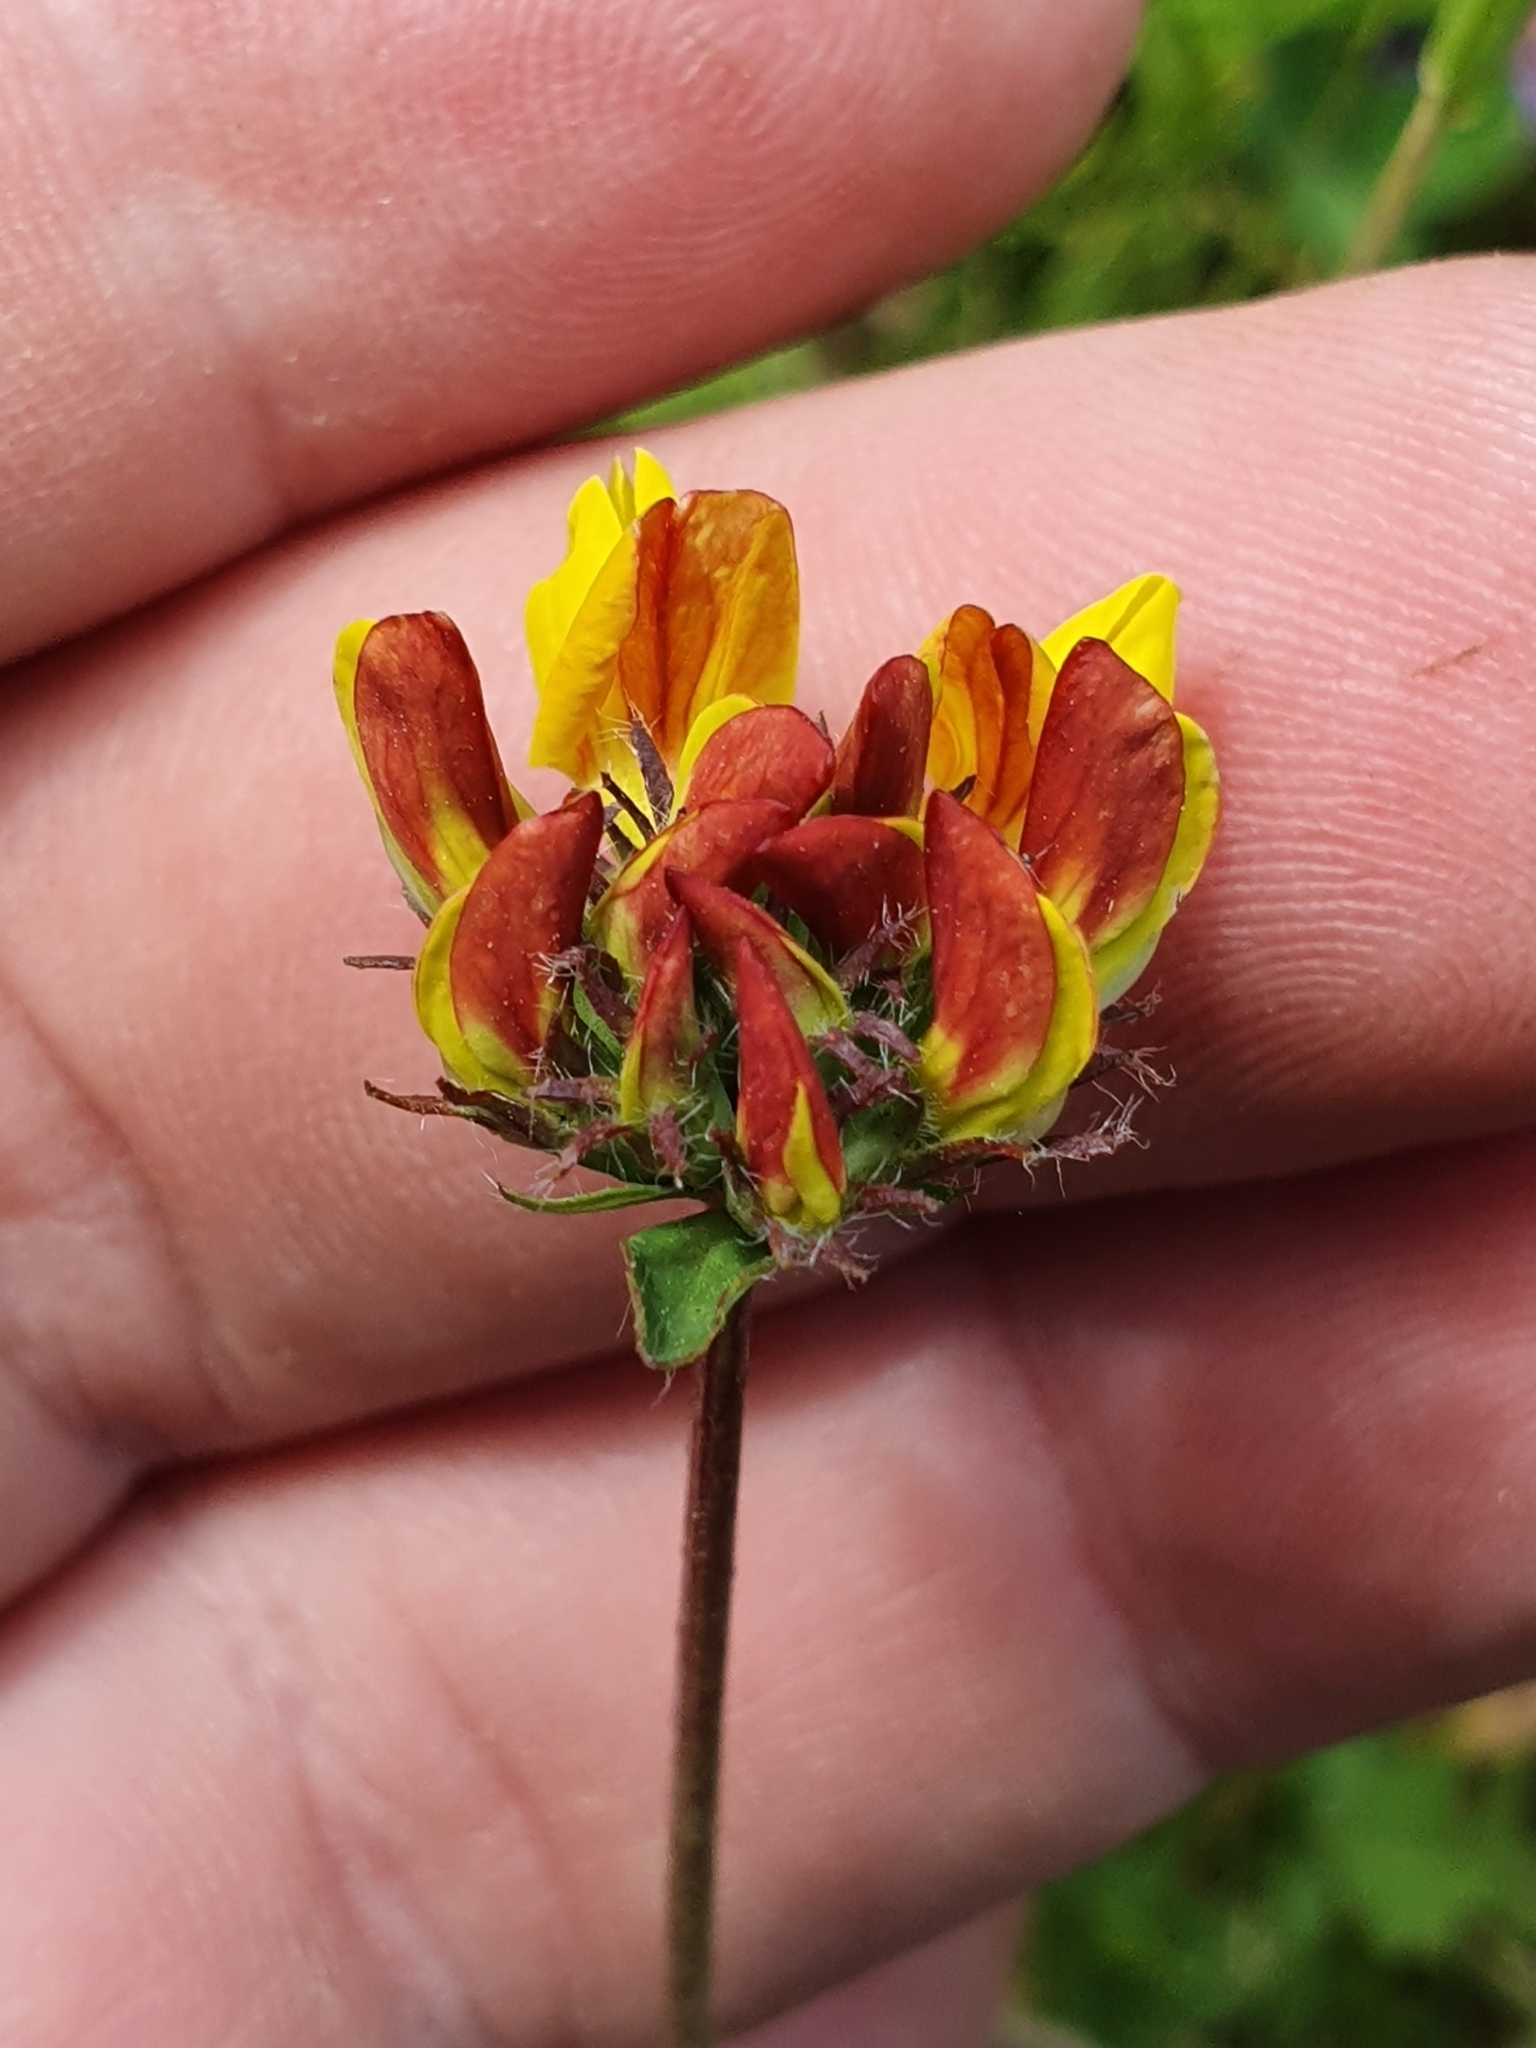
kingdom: Plantae
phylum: Tracheophyta
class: Magnoliopsida
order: Fabales
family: Fabaceae
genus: Lotus
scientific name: Lotus pedunculatus
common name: Greater birdsfoot-trefoil
